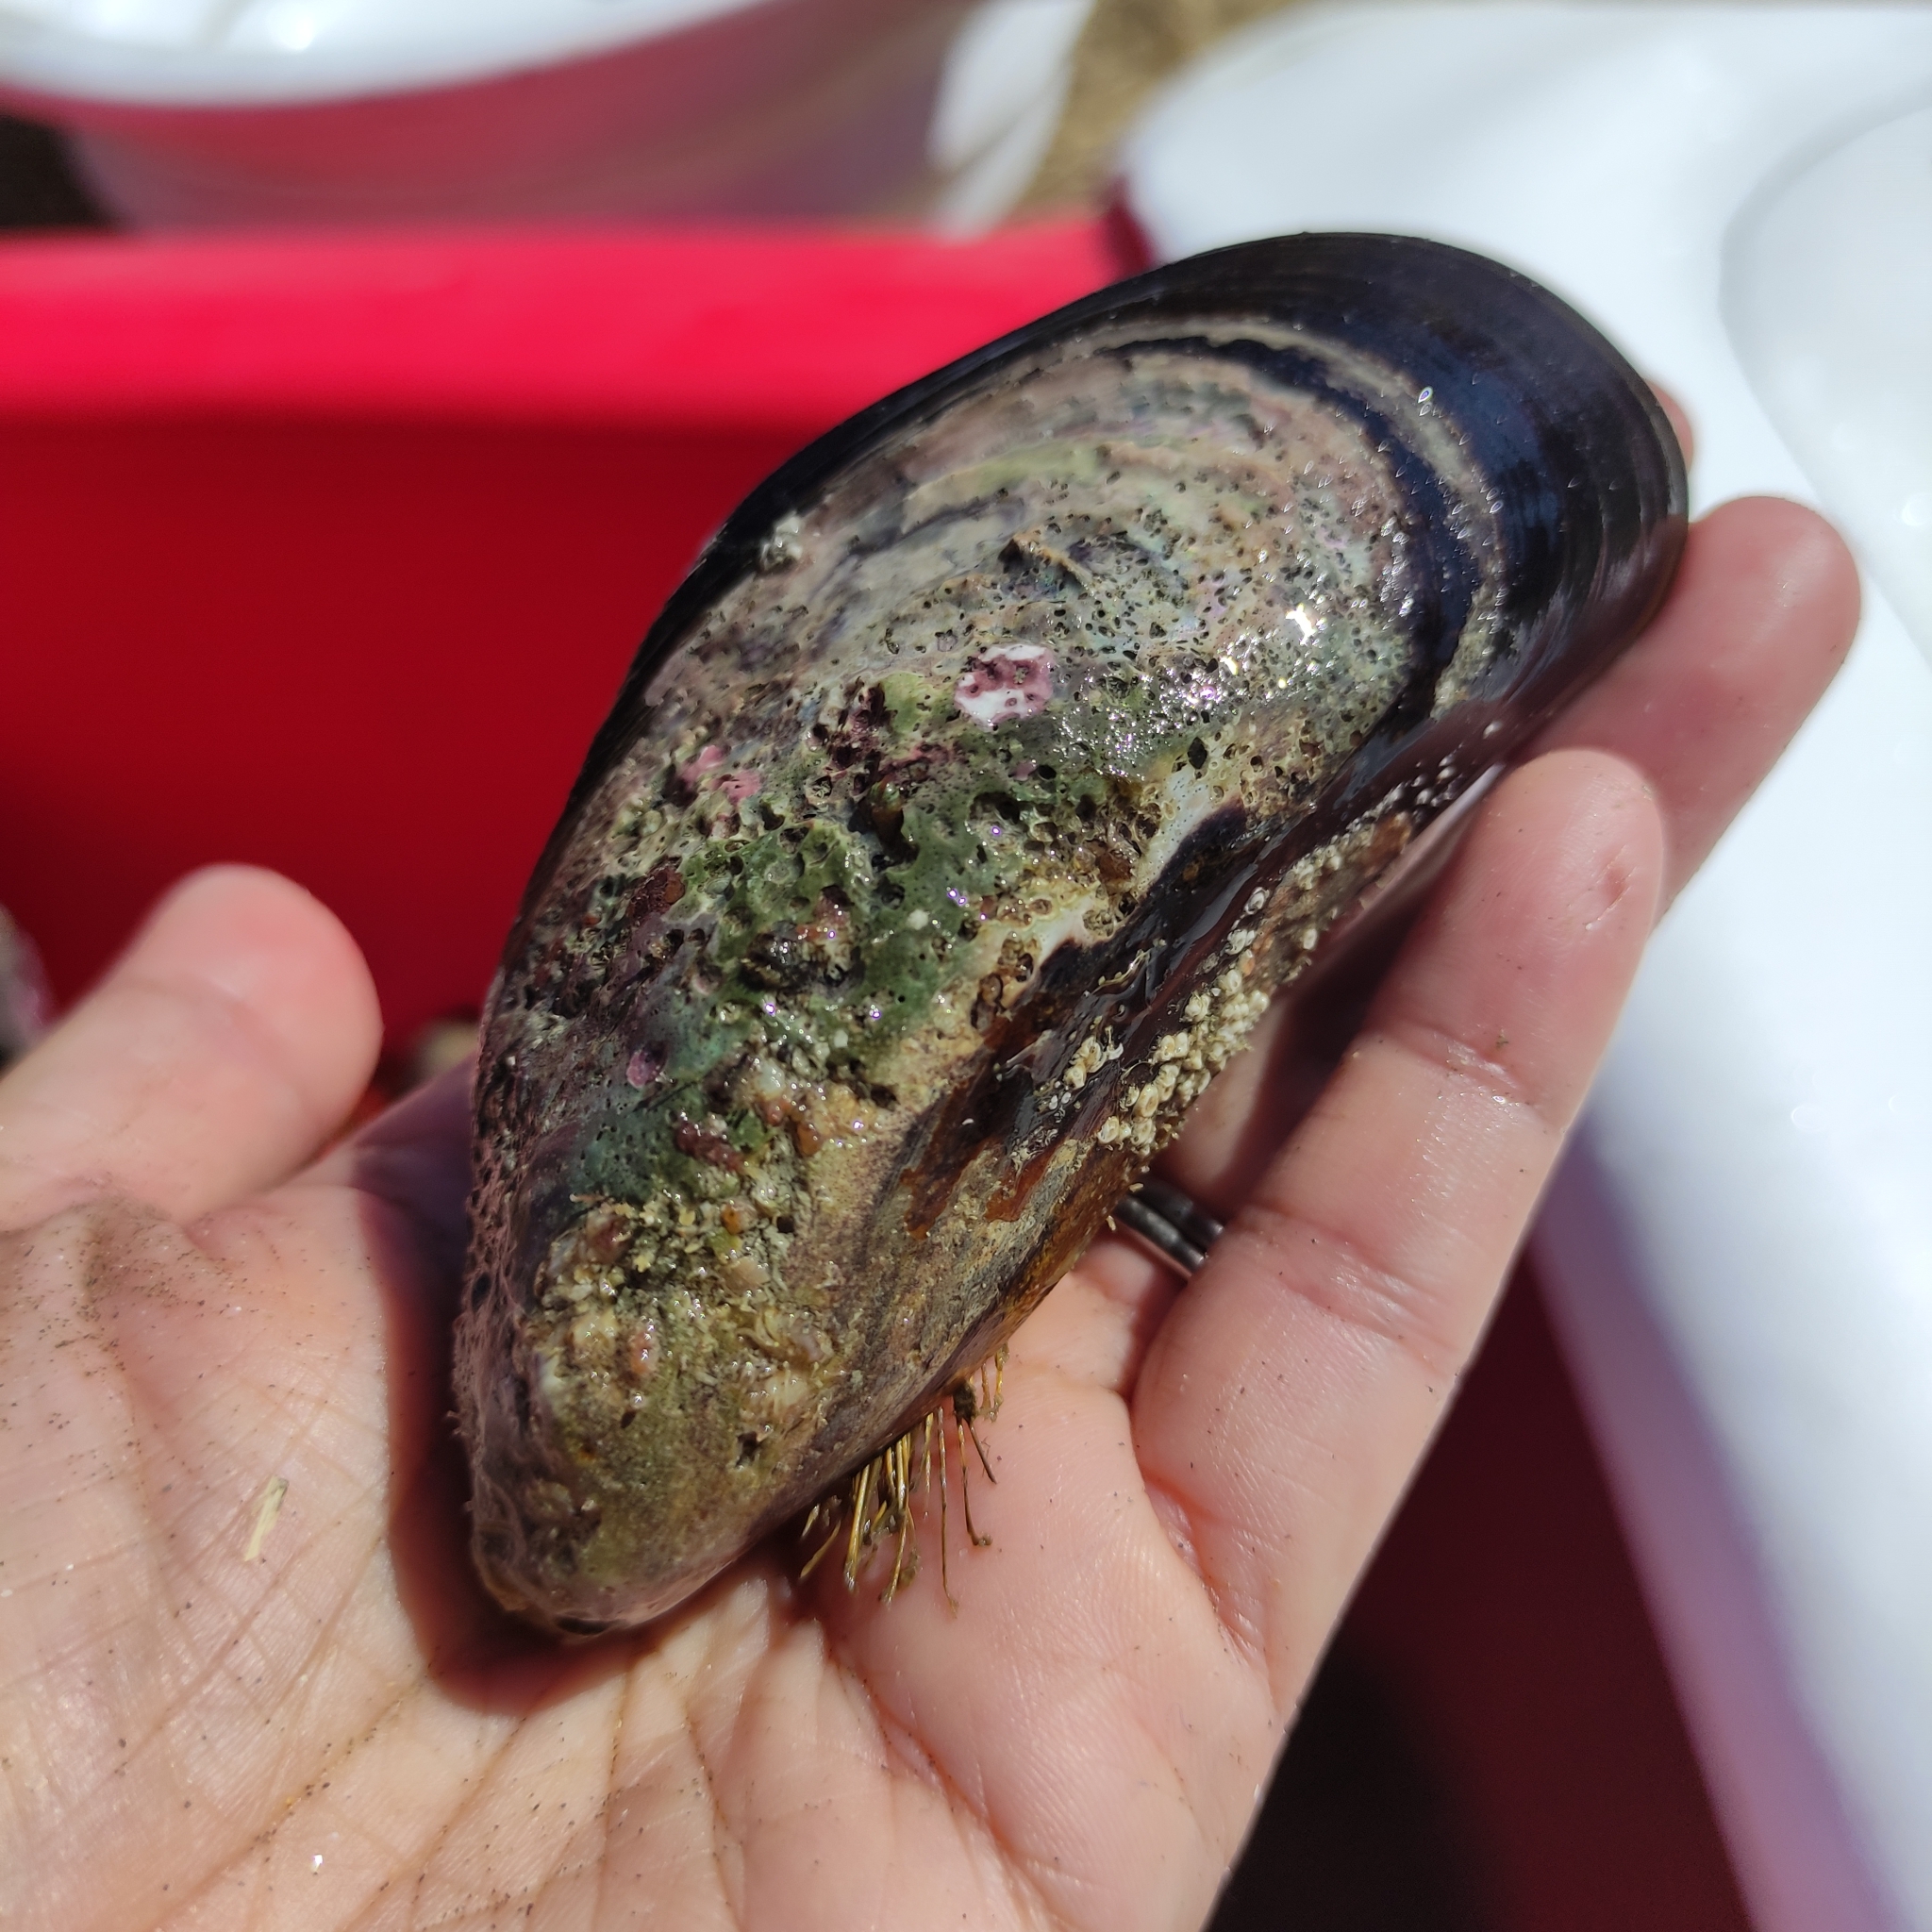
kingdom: Animalia
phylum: Mollusca
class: Bivalvia
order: Mytilida
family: Mytilidae
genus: Perna
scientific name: Perna canaliculus
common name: New zealand greenshelltm
